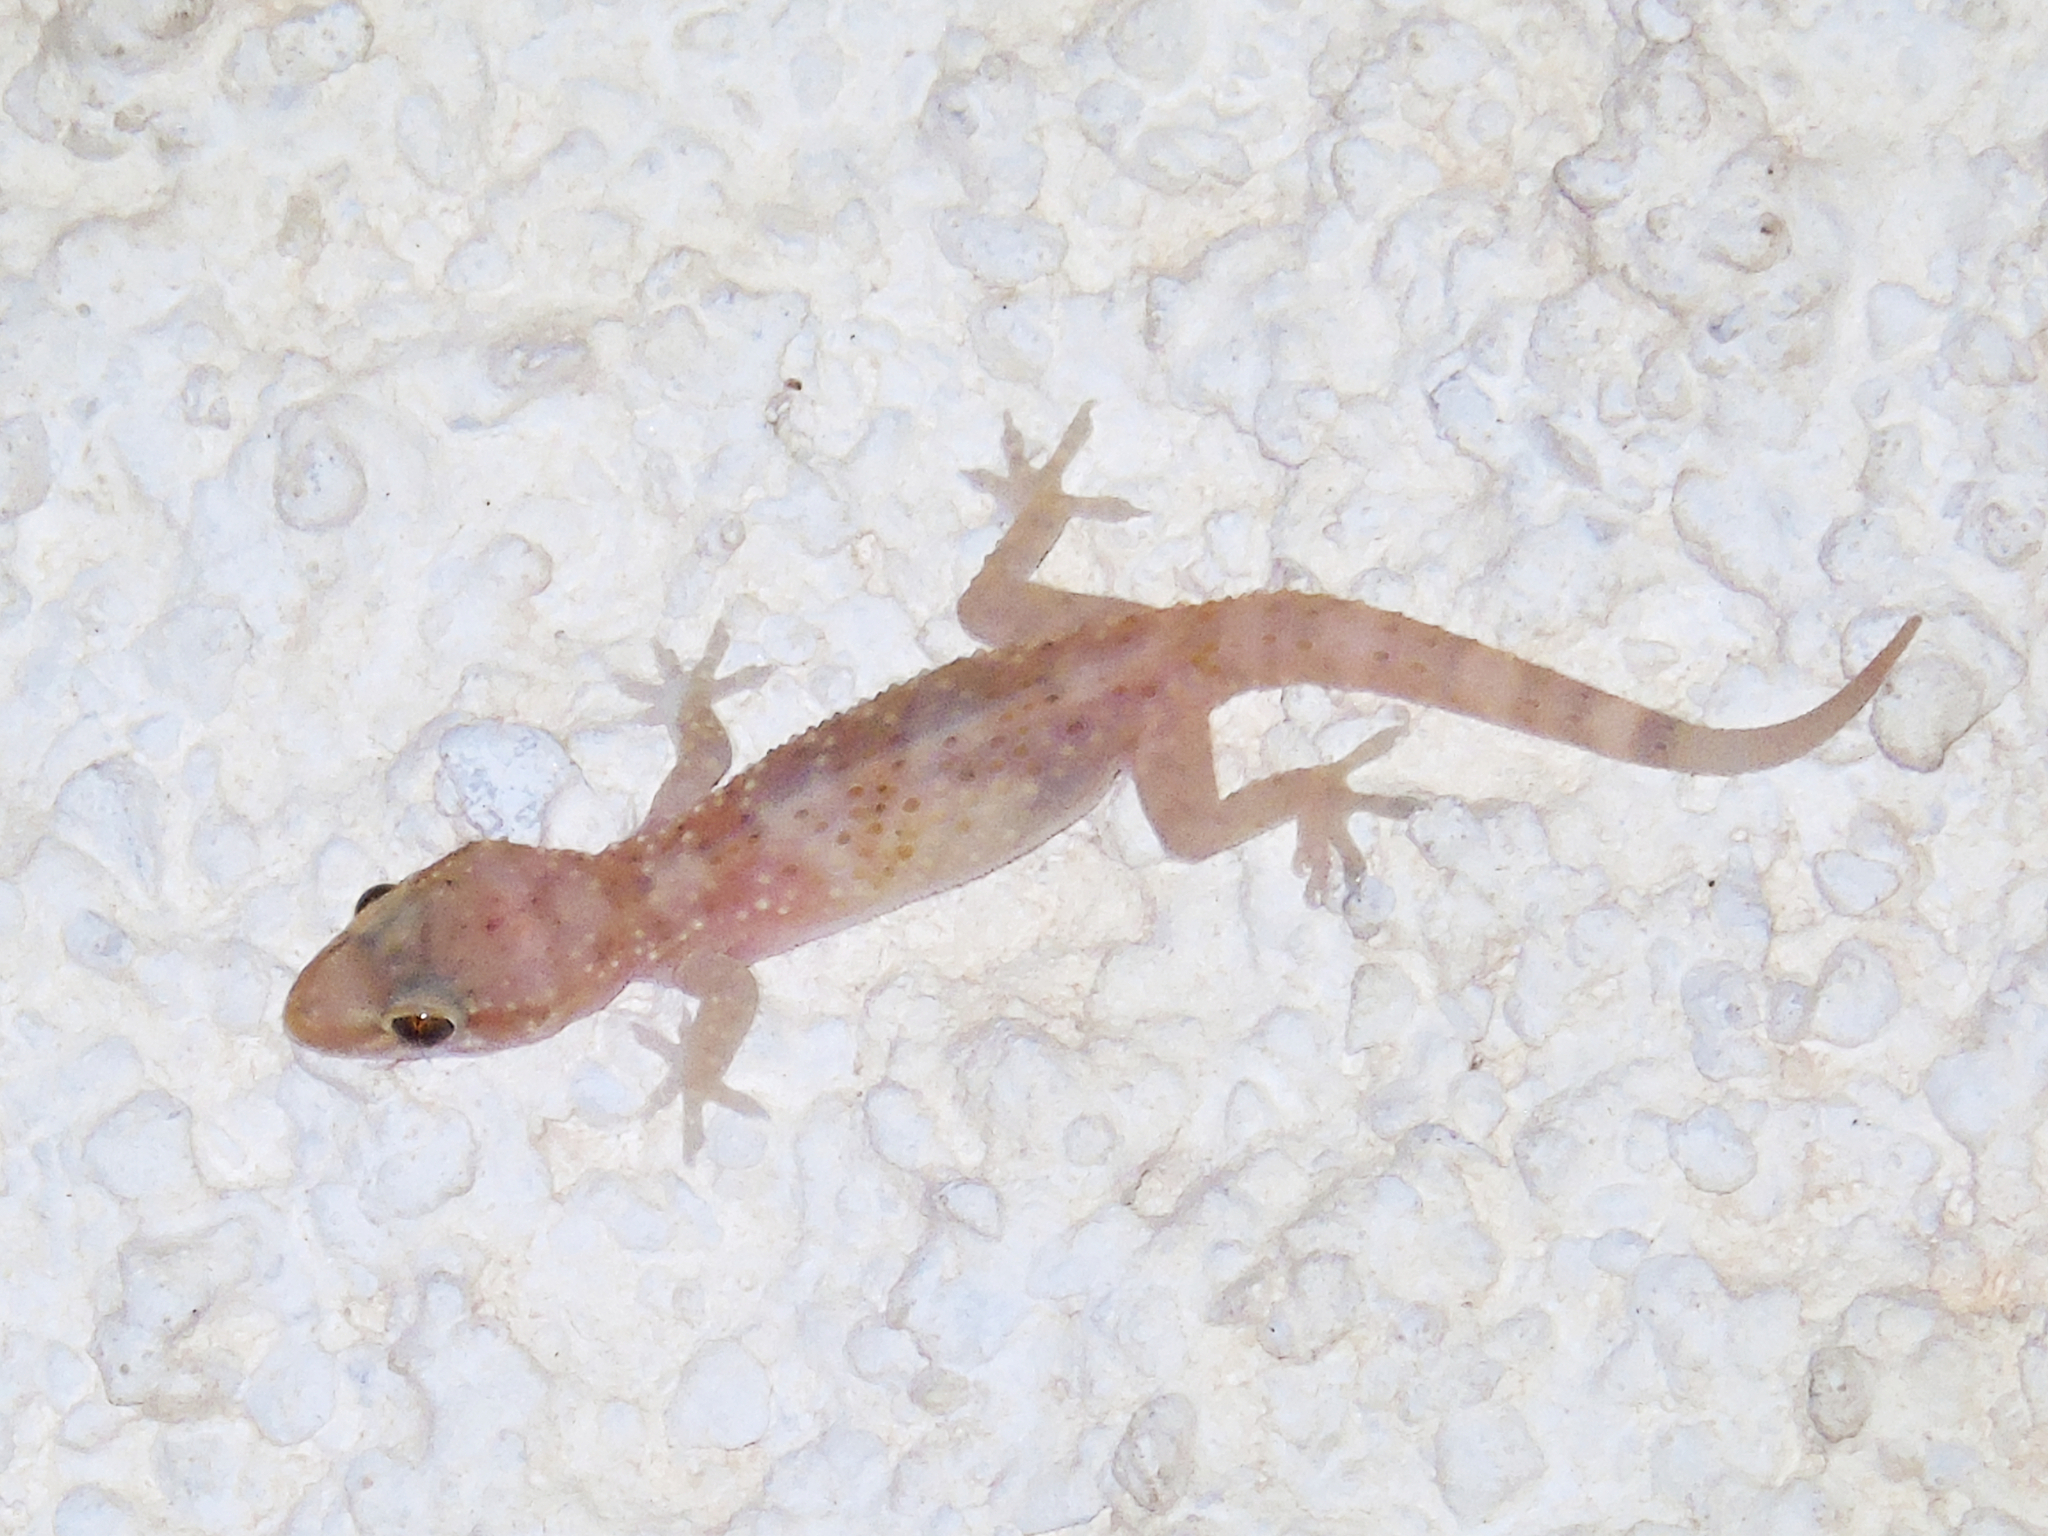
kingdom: Animalia
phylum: Chordata
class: Squamata
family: Gekkonidae
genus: Hemidactylus
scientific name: Hemidactylus turcicus
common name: Turkish gecko
